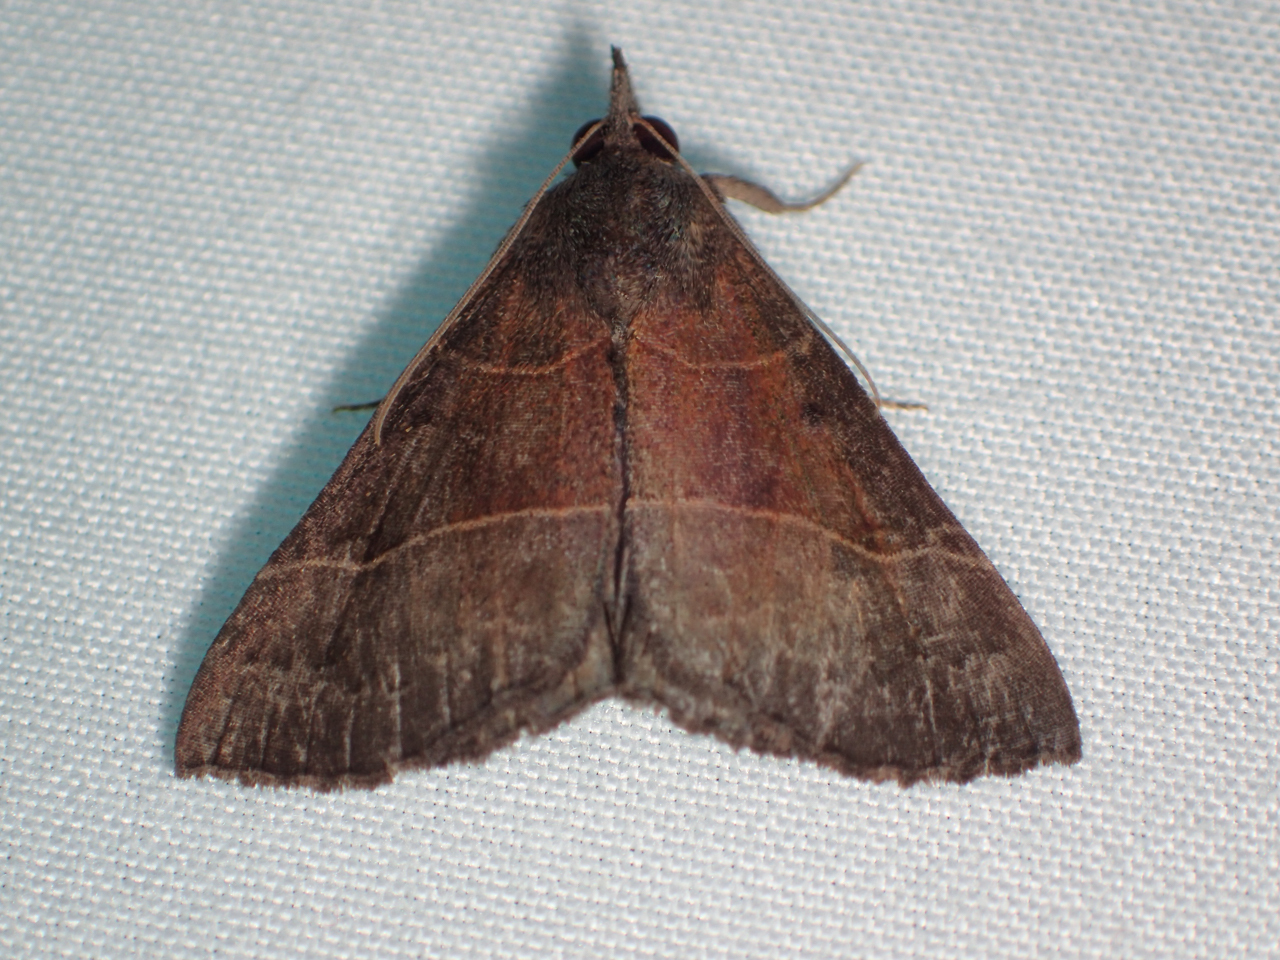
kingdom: Animalia
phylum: Arthropoda
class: Insecta
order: Lepidoptera
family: Erebidae
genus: Hypena
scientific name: Hypena deceptalis
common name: Deceptive snout
